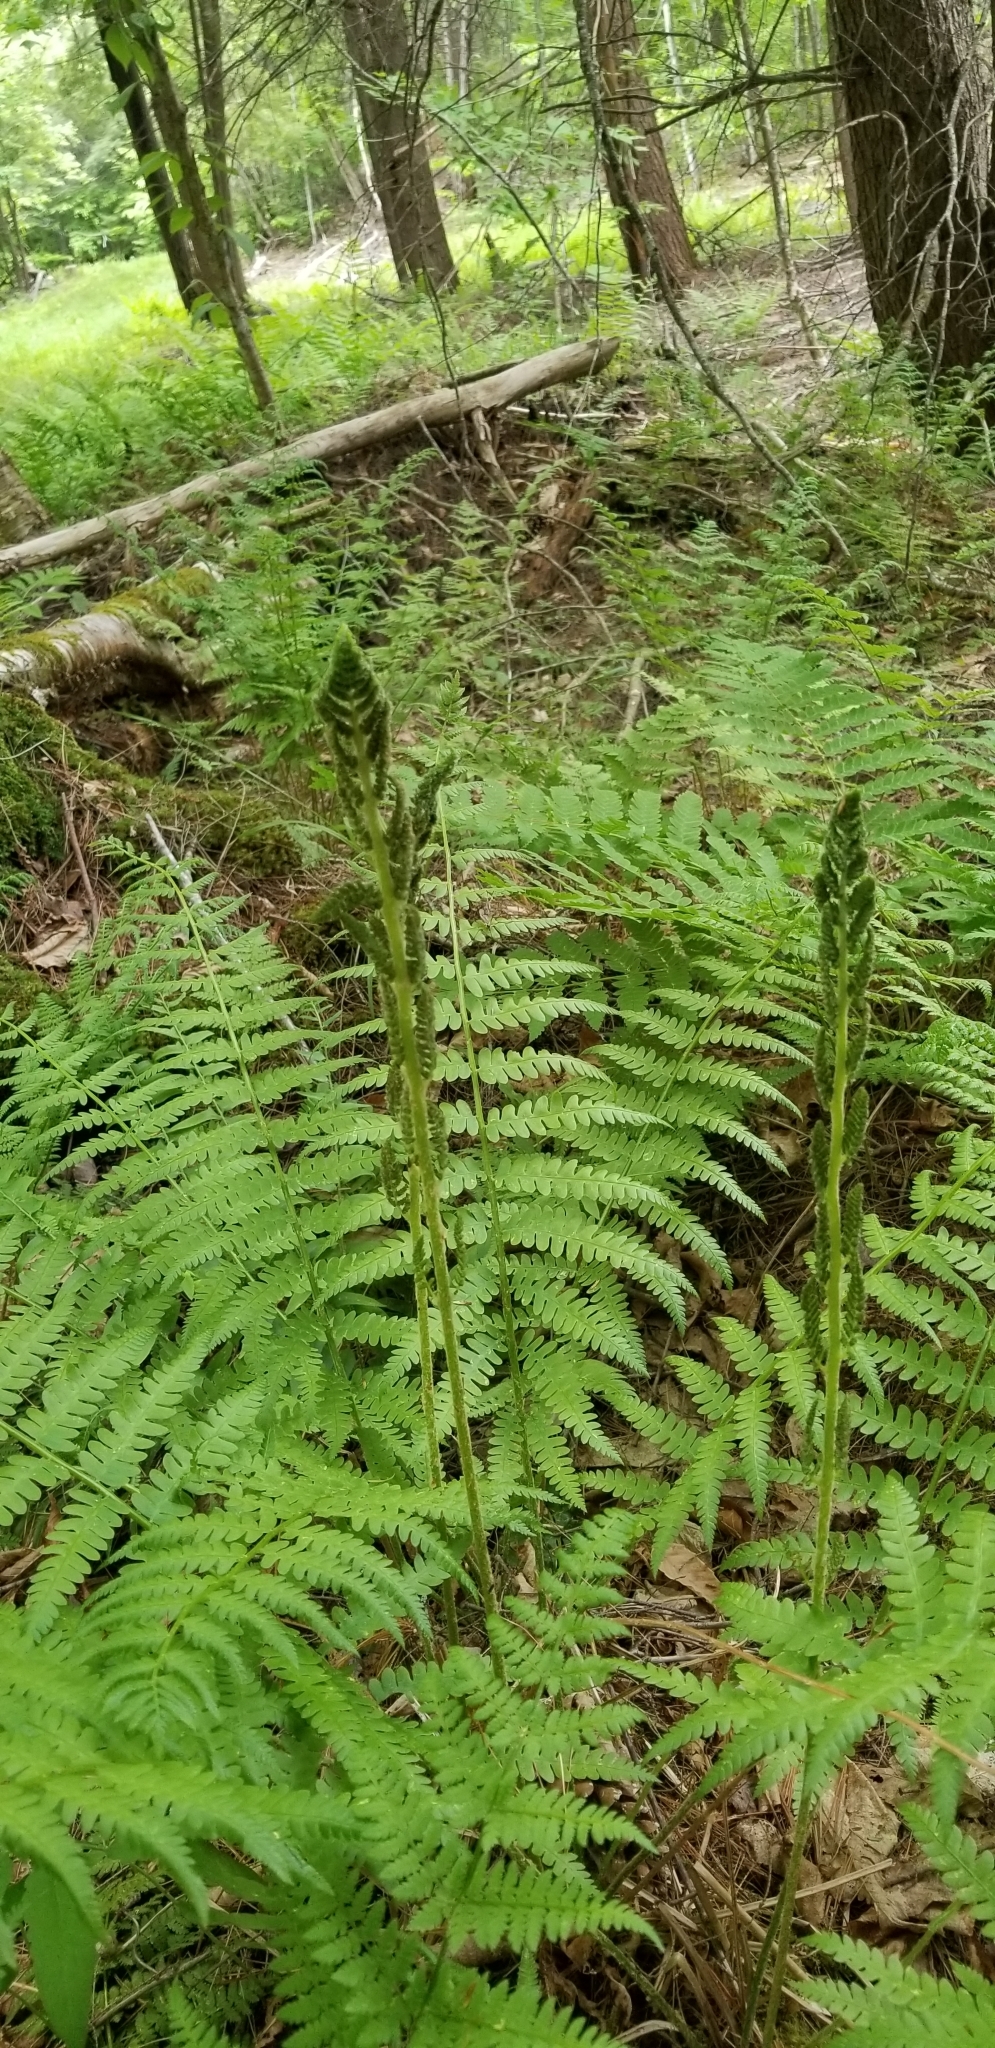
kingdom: Plantae
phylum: Tracheophyta
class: Polypodiopsida
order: Osmundales
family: Osmundaceae
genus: Osmundastrum
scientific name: Osmundastrum cinnamomeum
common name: Cinnamon fern
